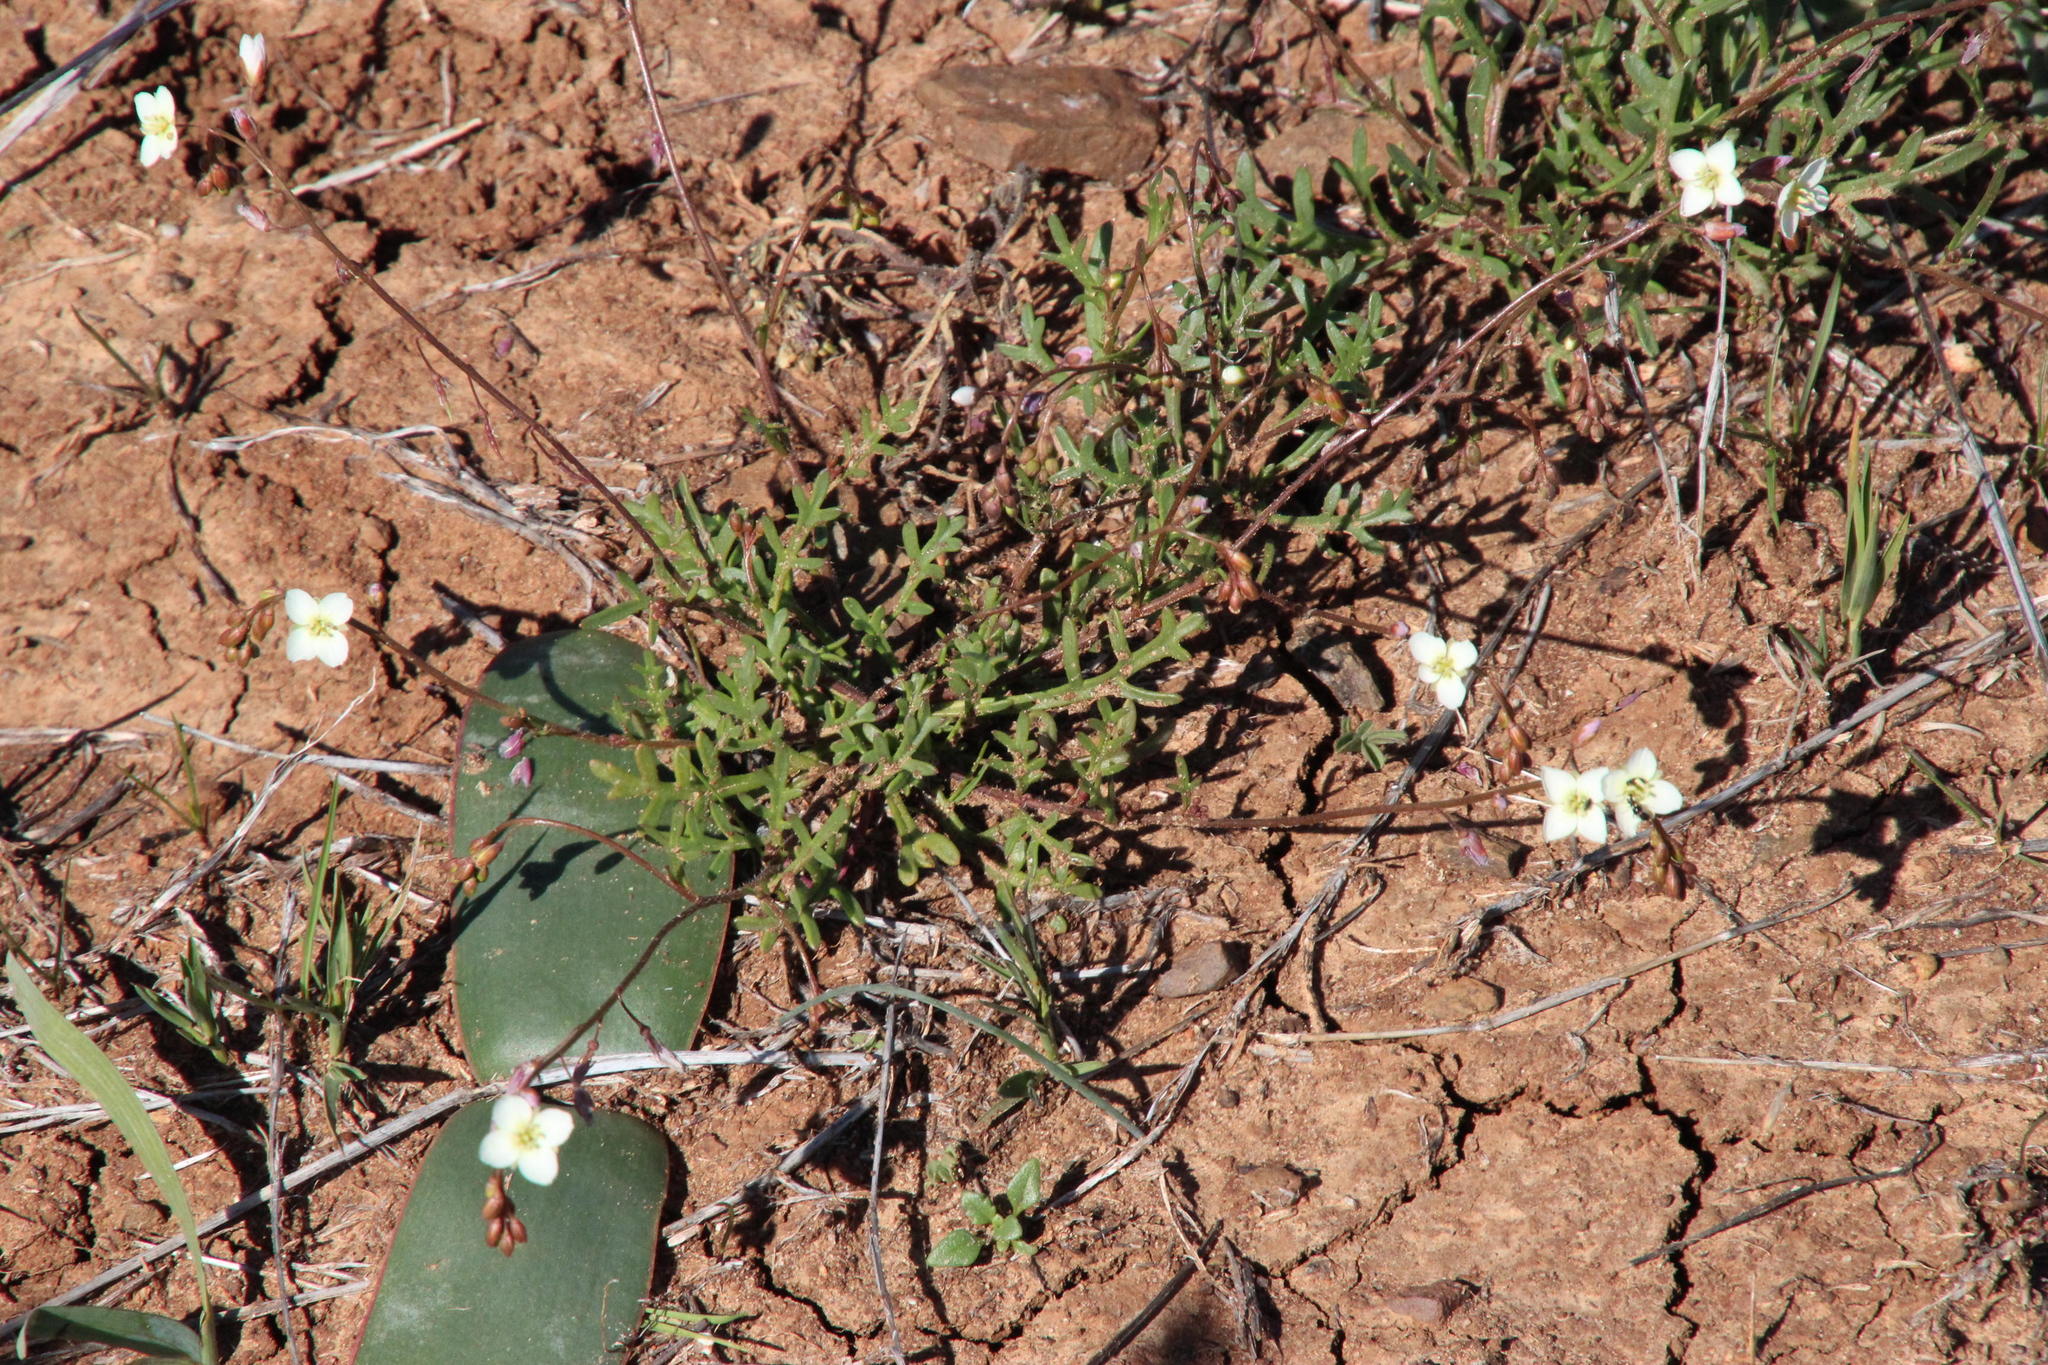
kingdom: Plantae
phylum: Tracheophyta
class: Magnoliopsida
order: Brassicales
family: Brassicaceae
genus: Heliophila
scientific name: Heliophila collina
